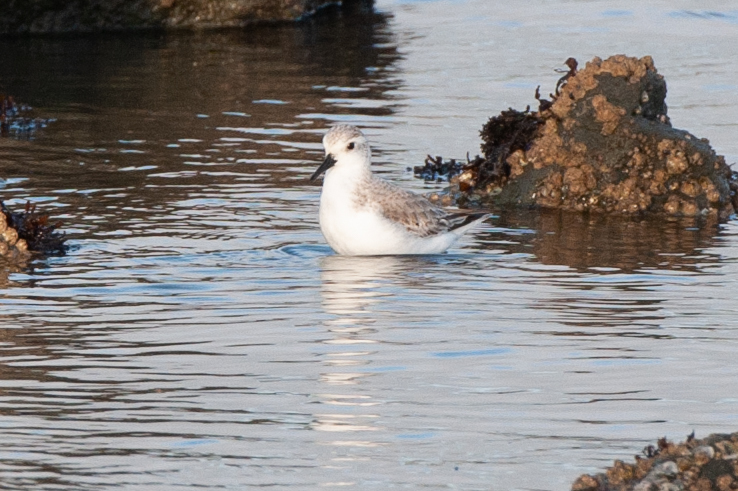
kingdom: Animalia
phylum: Chordata
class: Aves
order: Charadriiformes
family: Scolopacidae
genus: Calidris
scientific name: Calidris alba
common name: Sanderling
